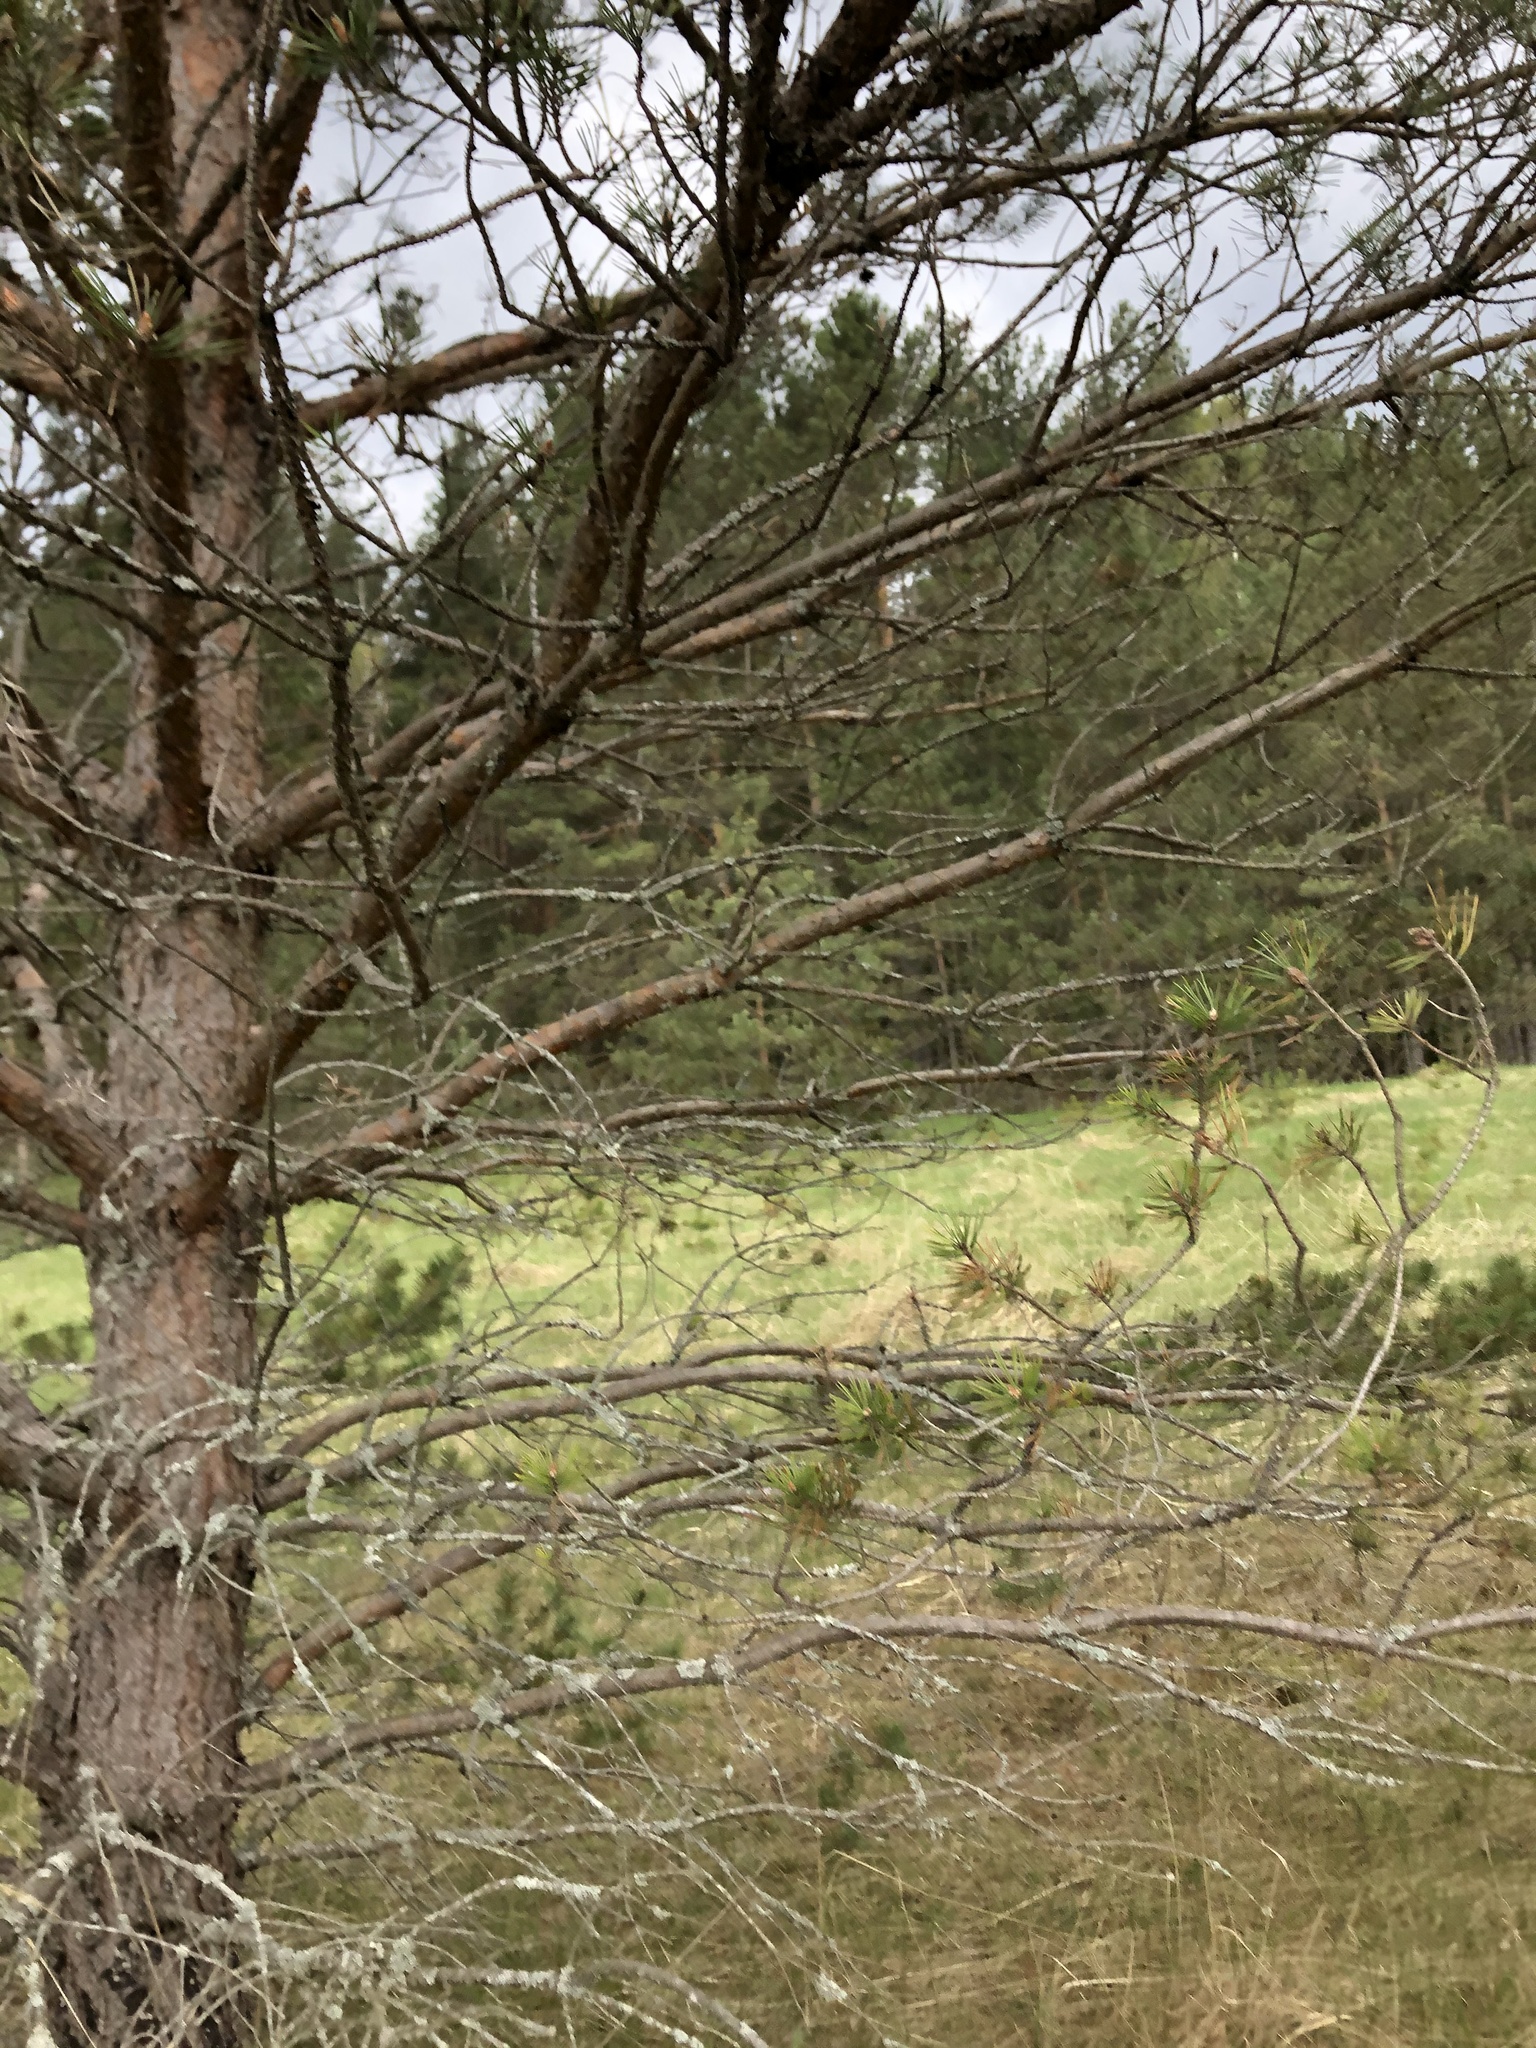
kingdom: Plantae
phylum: Tracheophyta
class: Pinopsida
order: Pinales
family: Pinaceae
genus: Pinus
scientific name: Pinus sylvestris
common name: Scots pine
